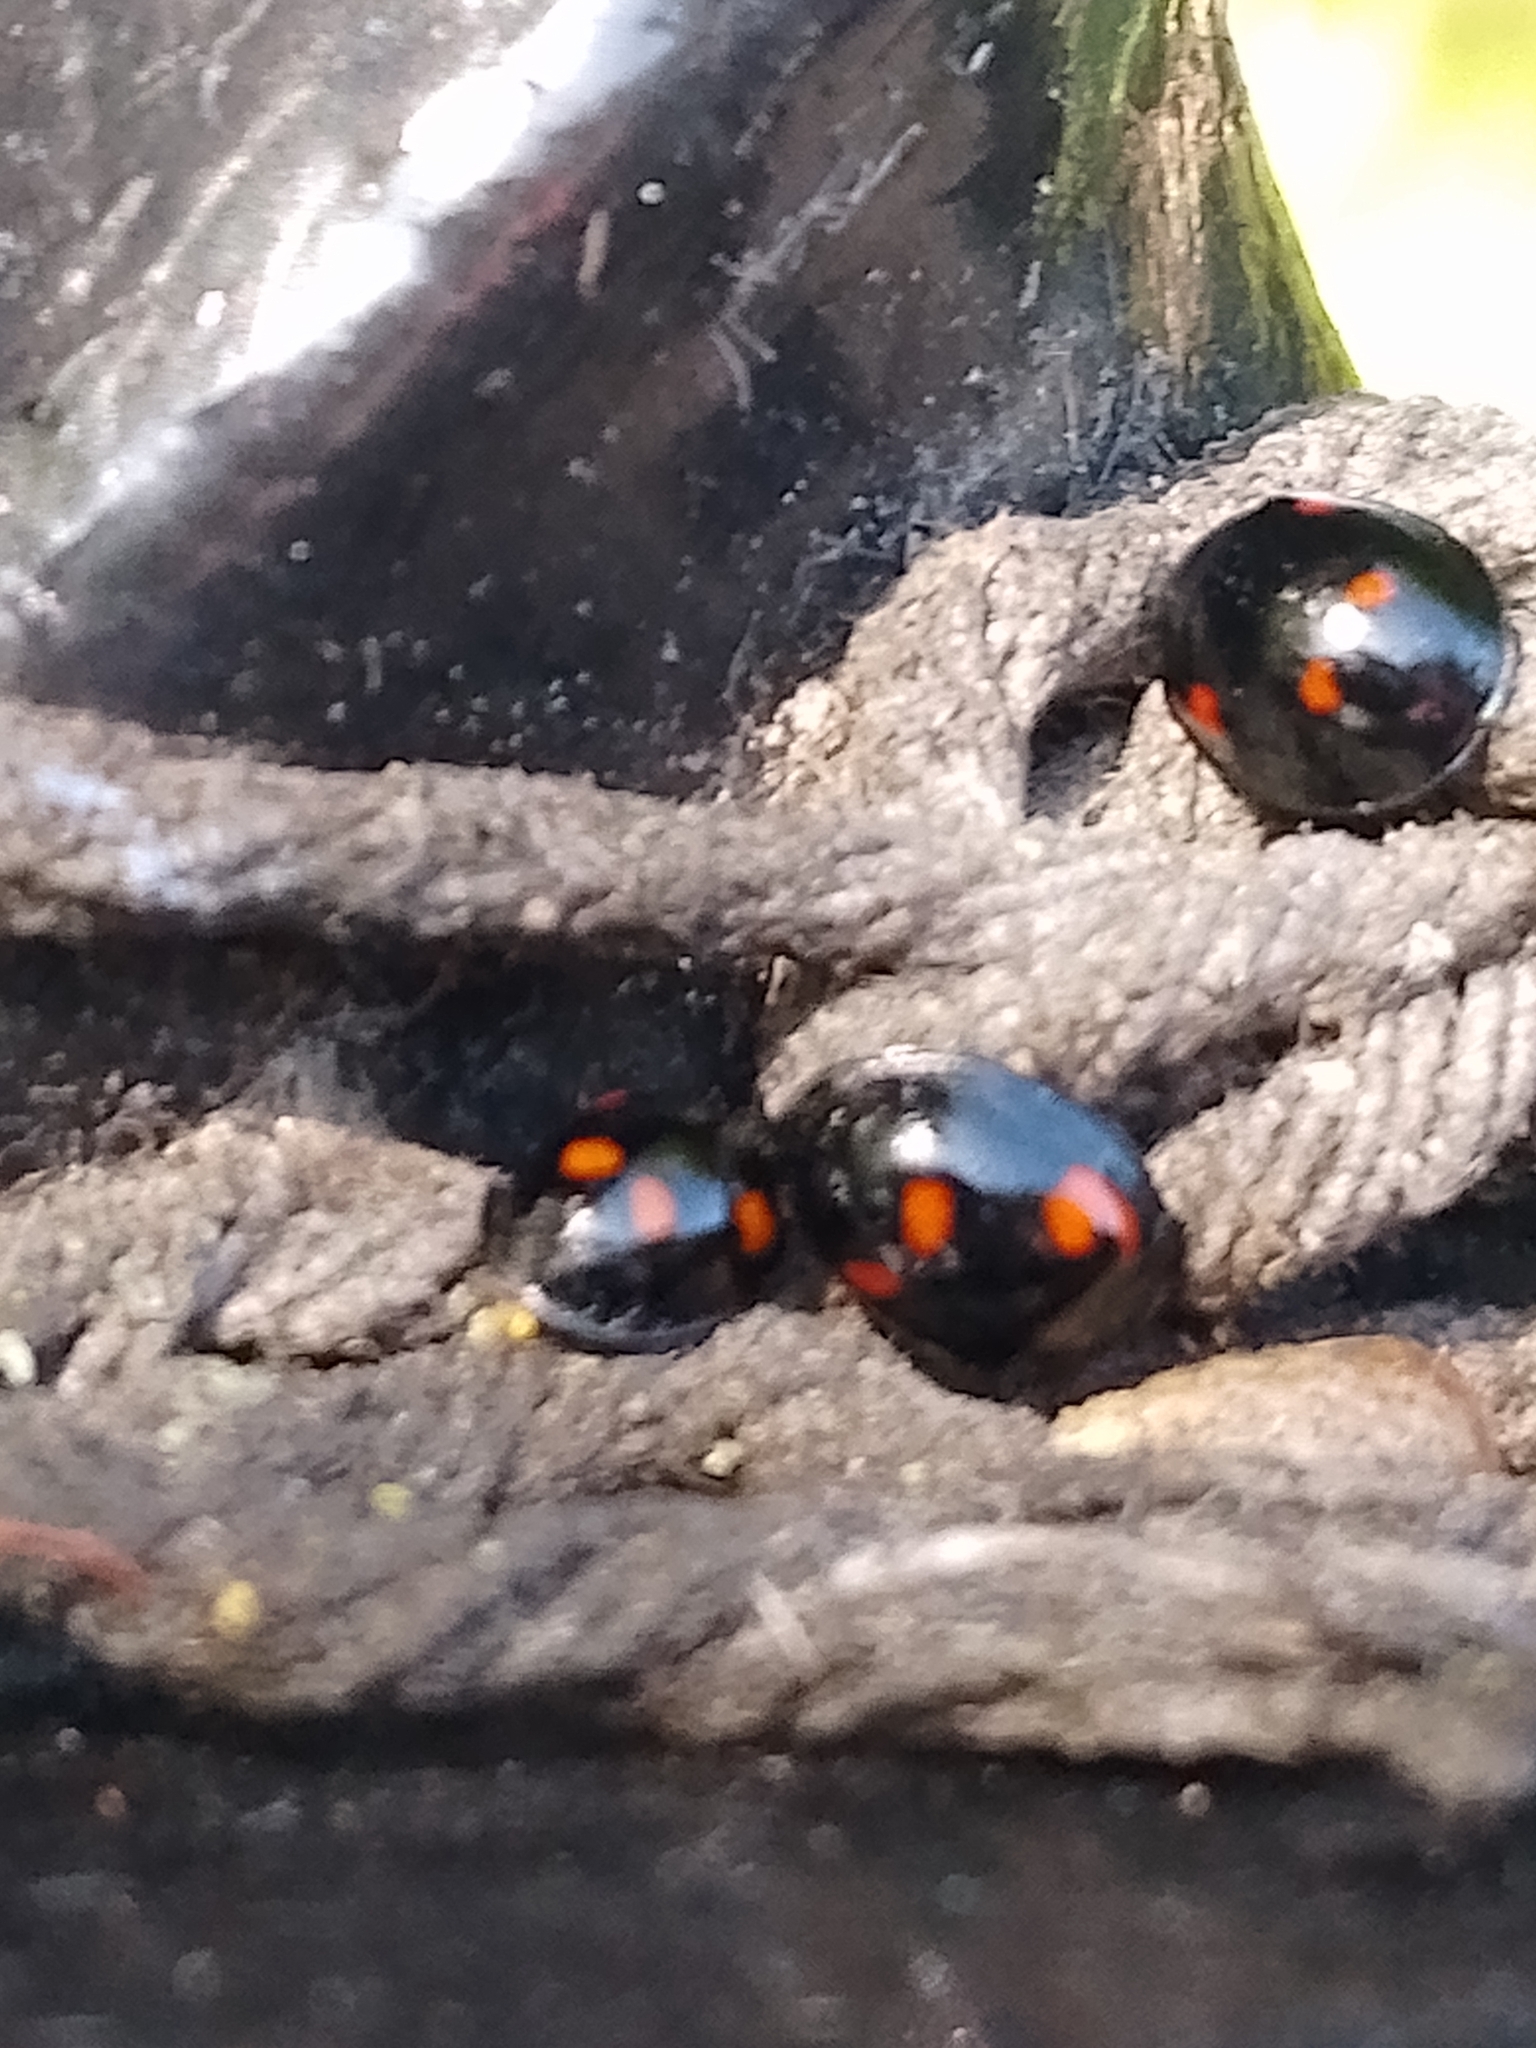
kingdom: Animalia
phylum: Arthropoda
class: Insecta
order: Coleoptera
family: Coccinellidae
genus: Brumus
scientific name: Brumus quadripustulatus
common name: Ladybird beetle
